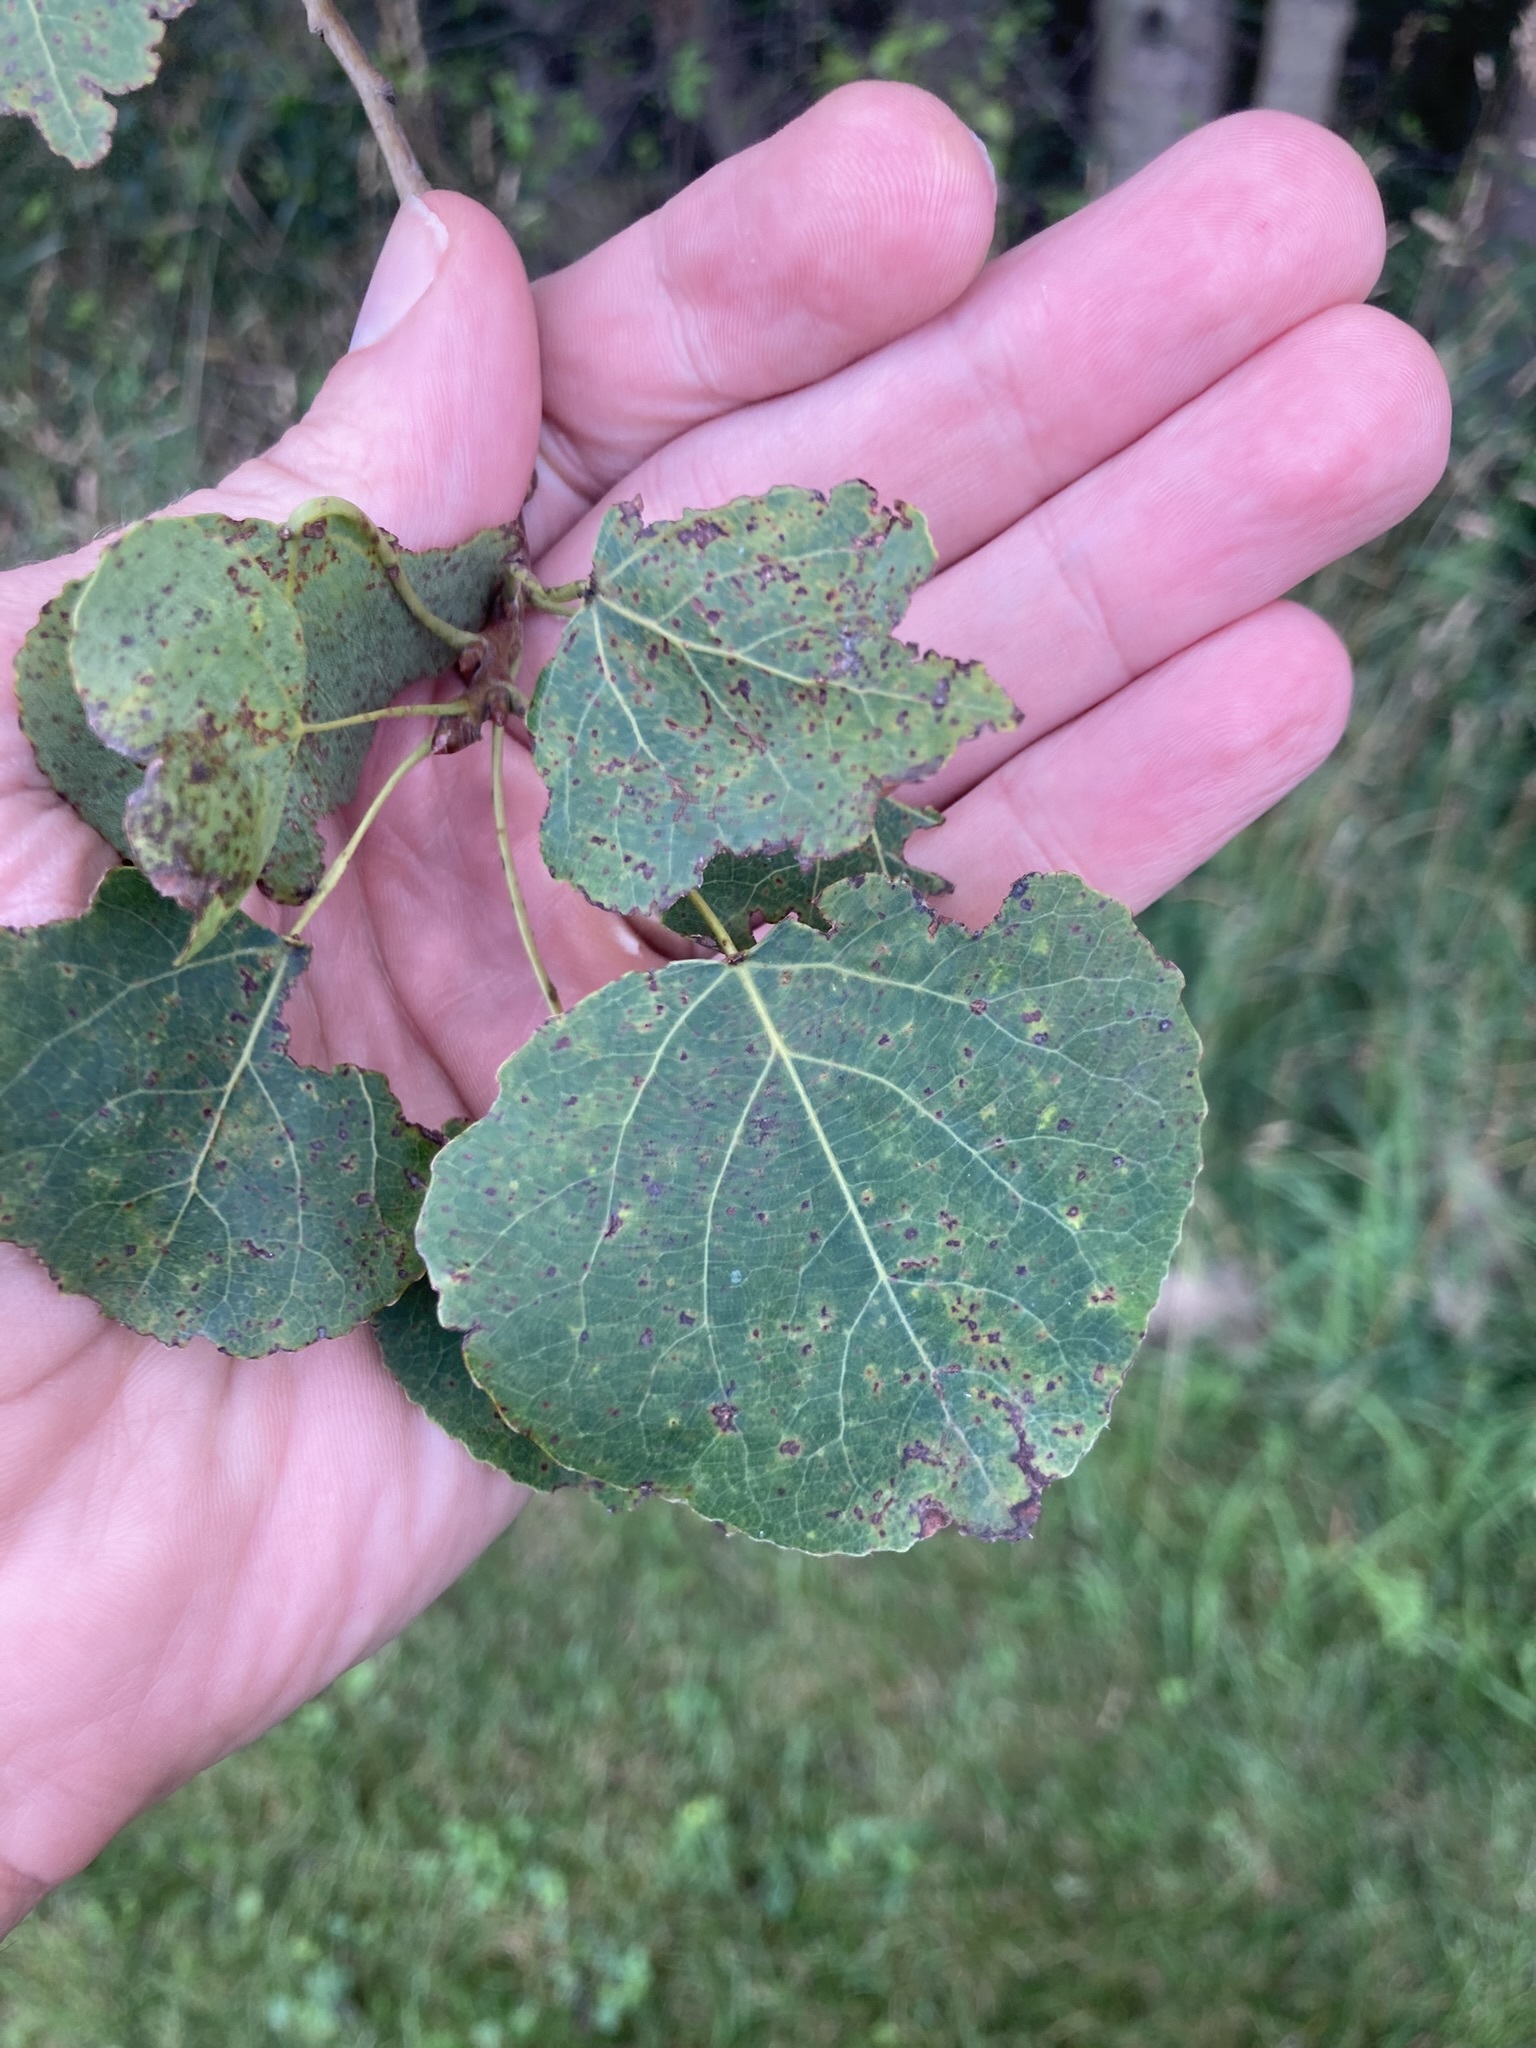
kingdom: Plantae
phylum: Tracheophyta
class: Magnoliopsida
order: Malpighiales
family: Salicaceae
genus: Populus
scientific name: Populus tremuloides
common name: Quaking aspen
